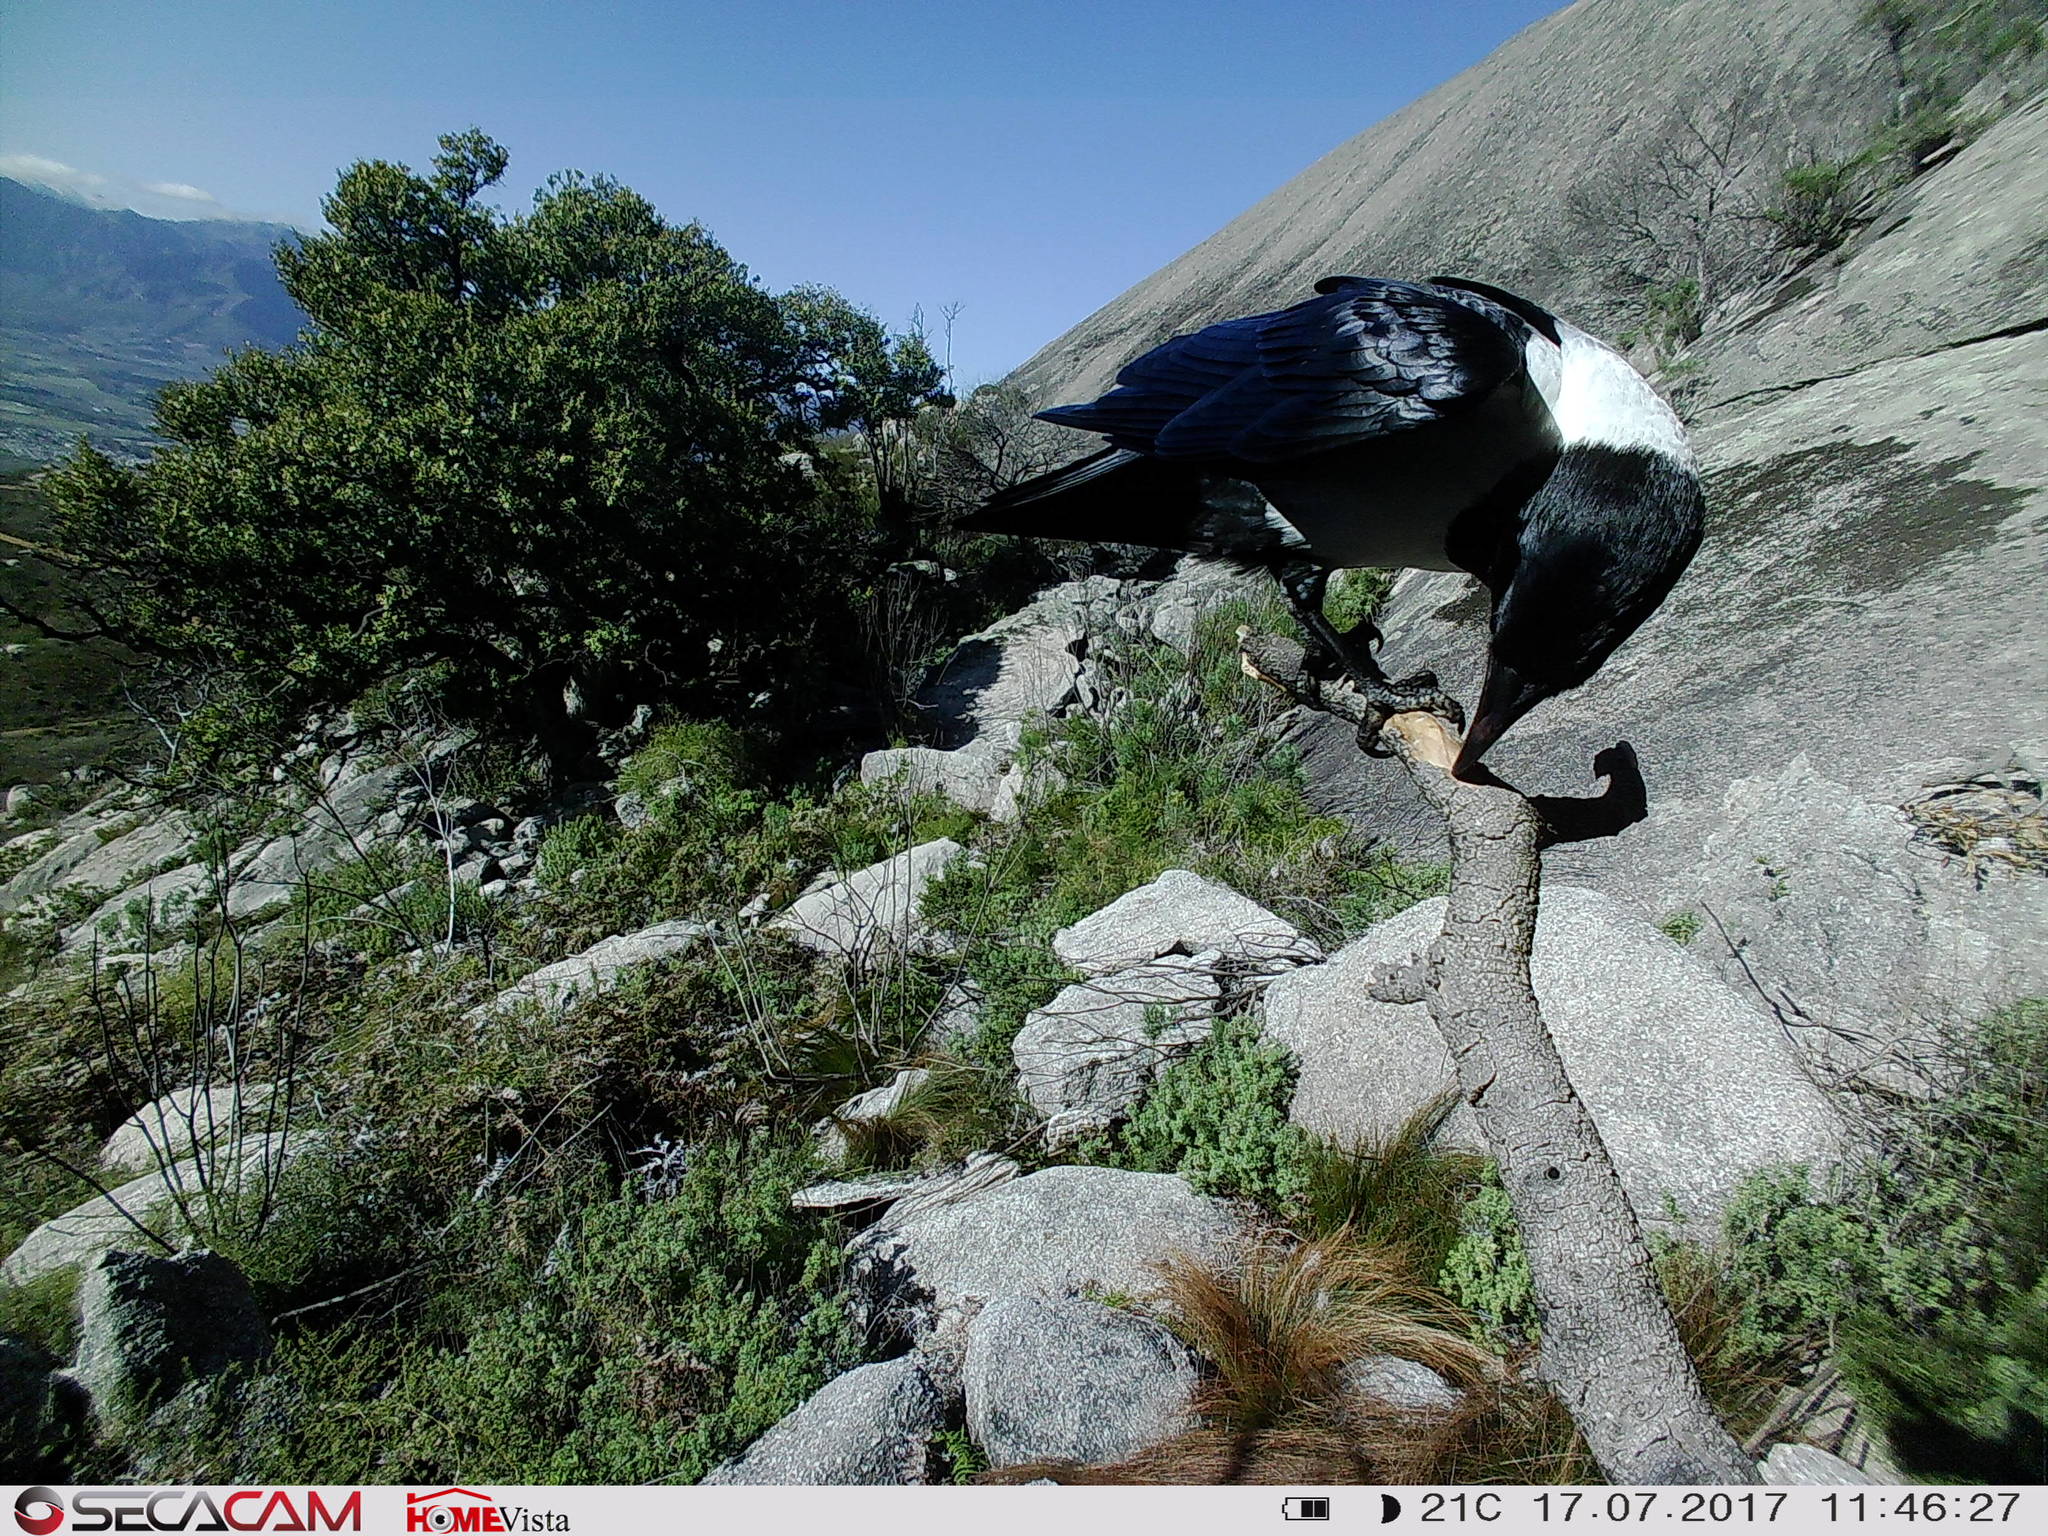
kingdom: Animalia
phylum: Chordata
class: Aves
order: Passeriformes
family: Corvidae
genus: Corvus
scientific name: Corvus albus
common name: Pied crow
